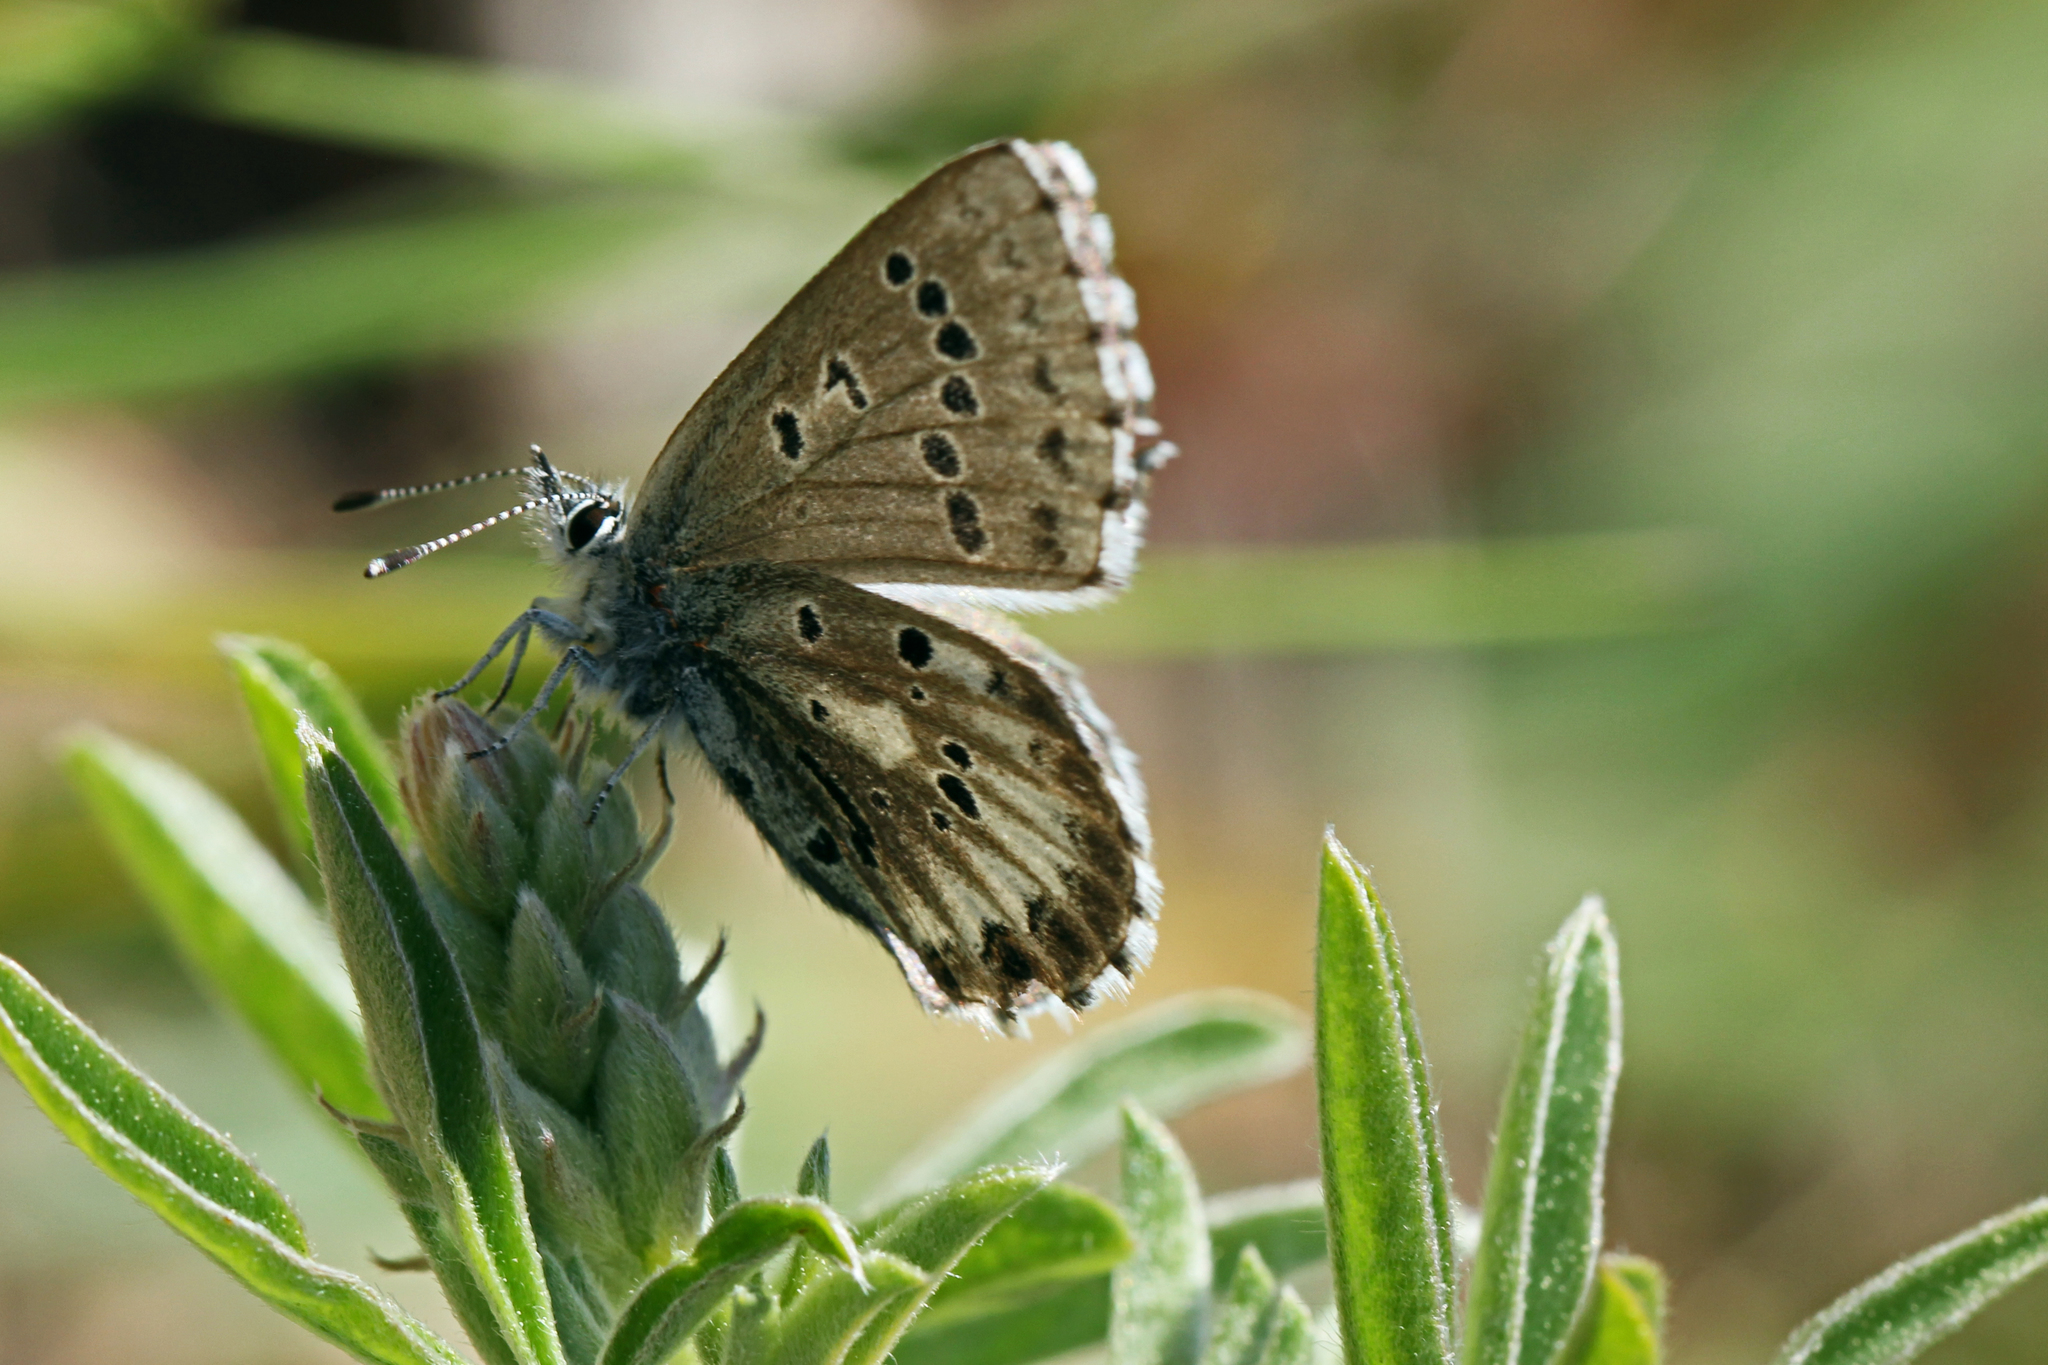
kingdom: Animalia
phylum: Arthropoda
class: Insecta
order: Lepidoptera
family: Lycaenidae
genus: Glaucopsyche
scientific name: Glaucopsyche piasus
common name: Arrowhead blue
